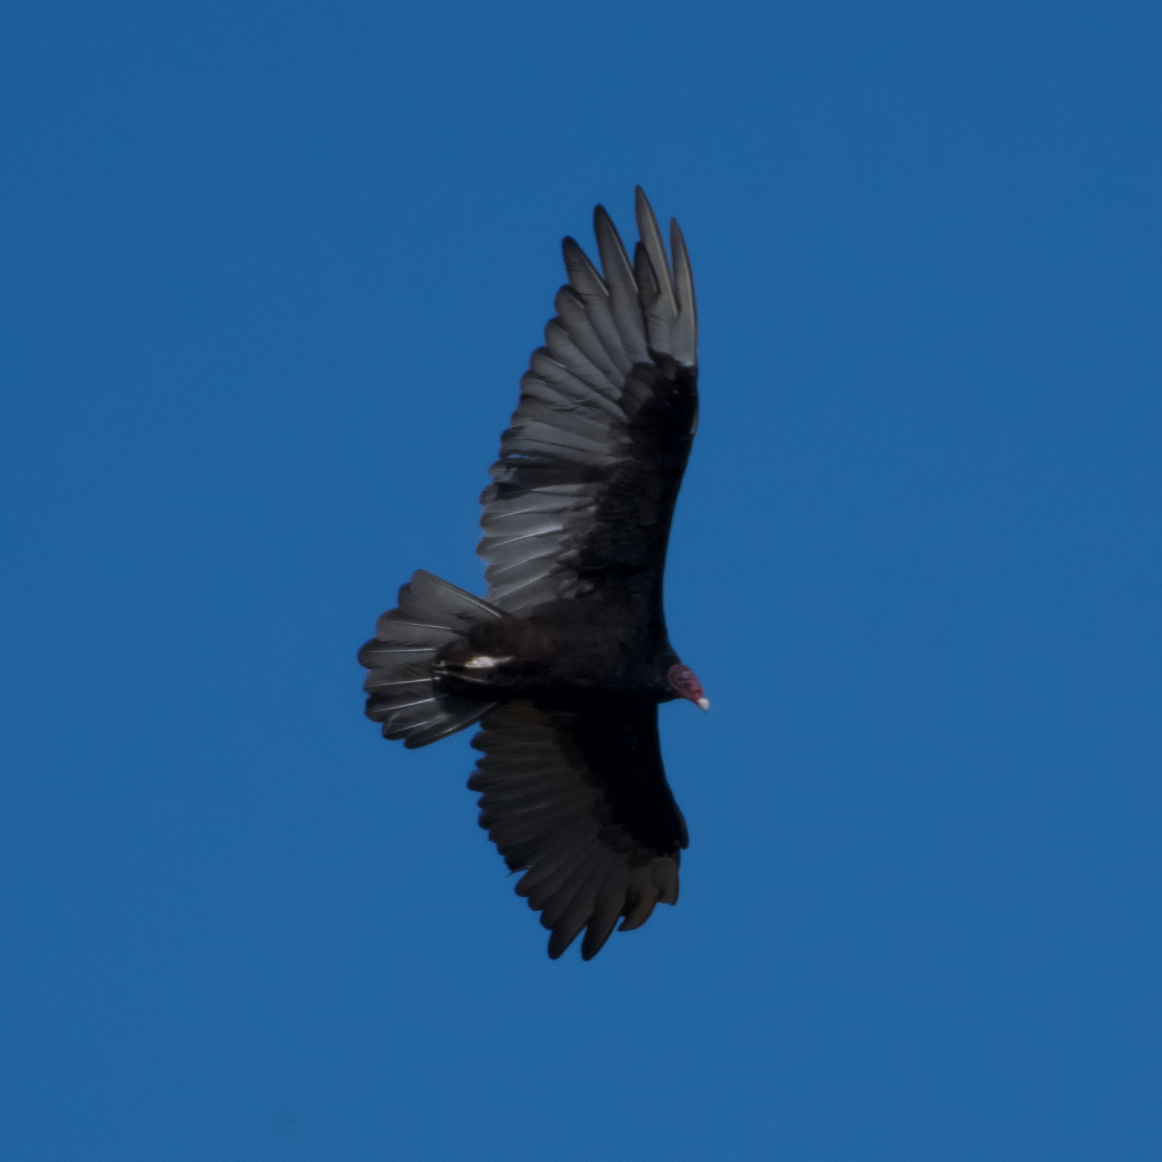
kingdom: Animalia
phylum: Chordata
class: Aves
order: Accipitriformes
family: Cathartidae
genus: Cathartes
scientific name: Cathartes aura
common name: Turkey vulture
